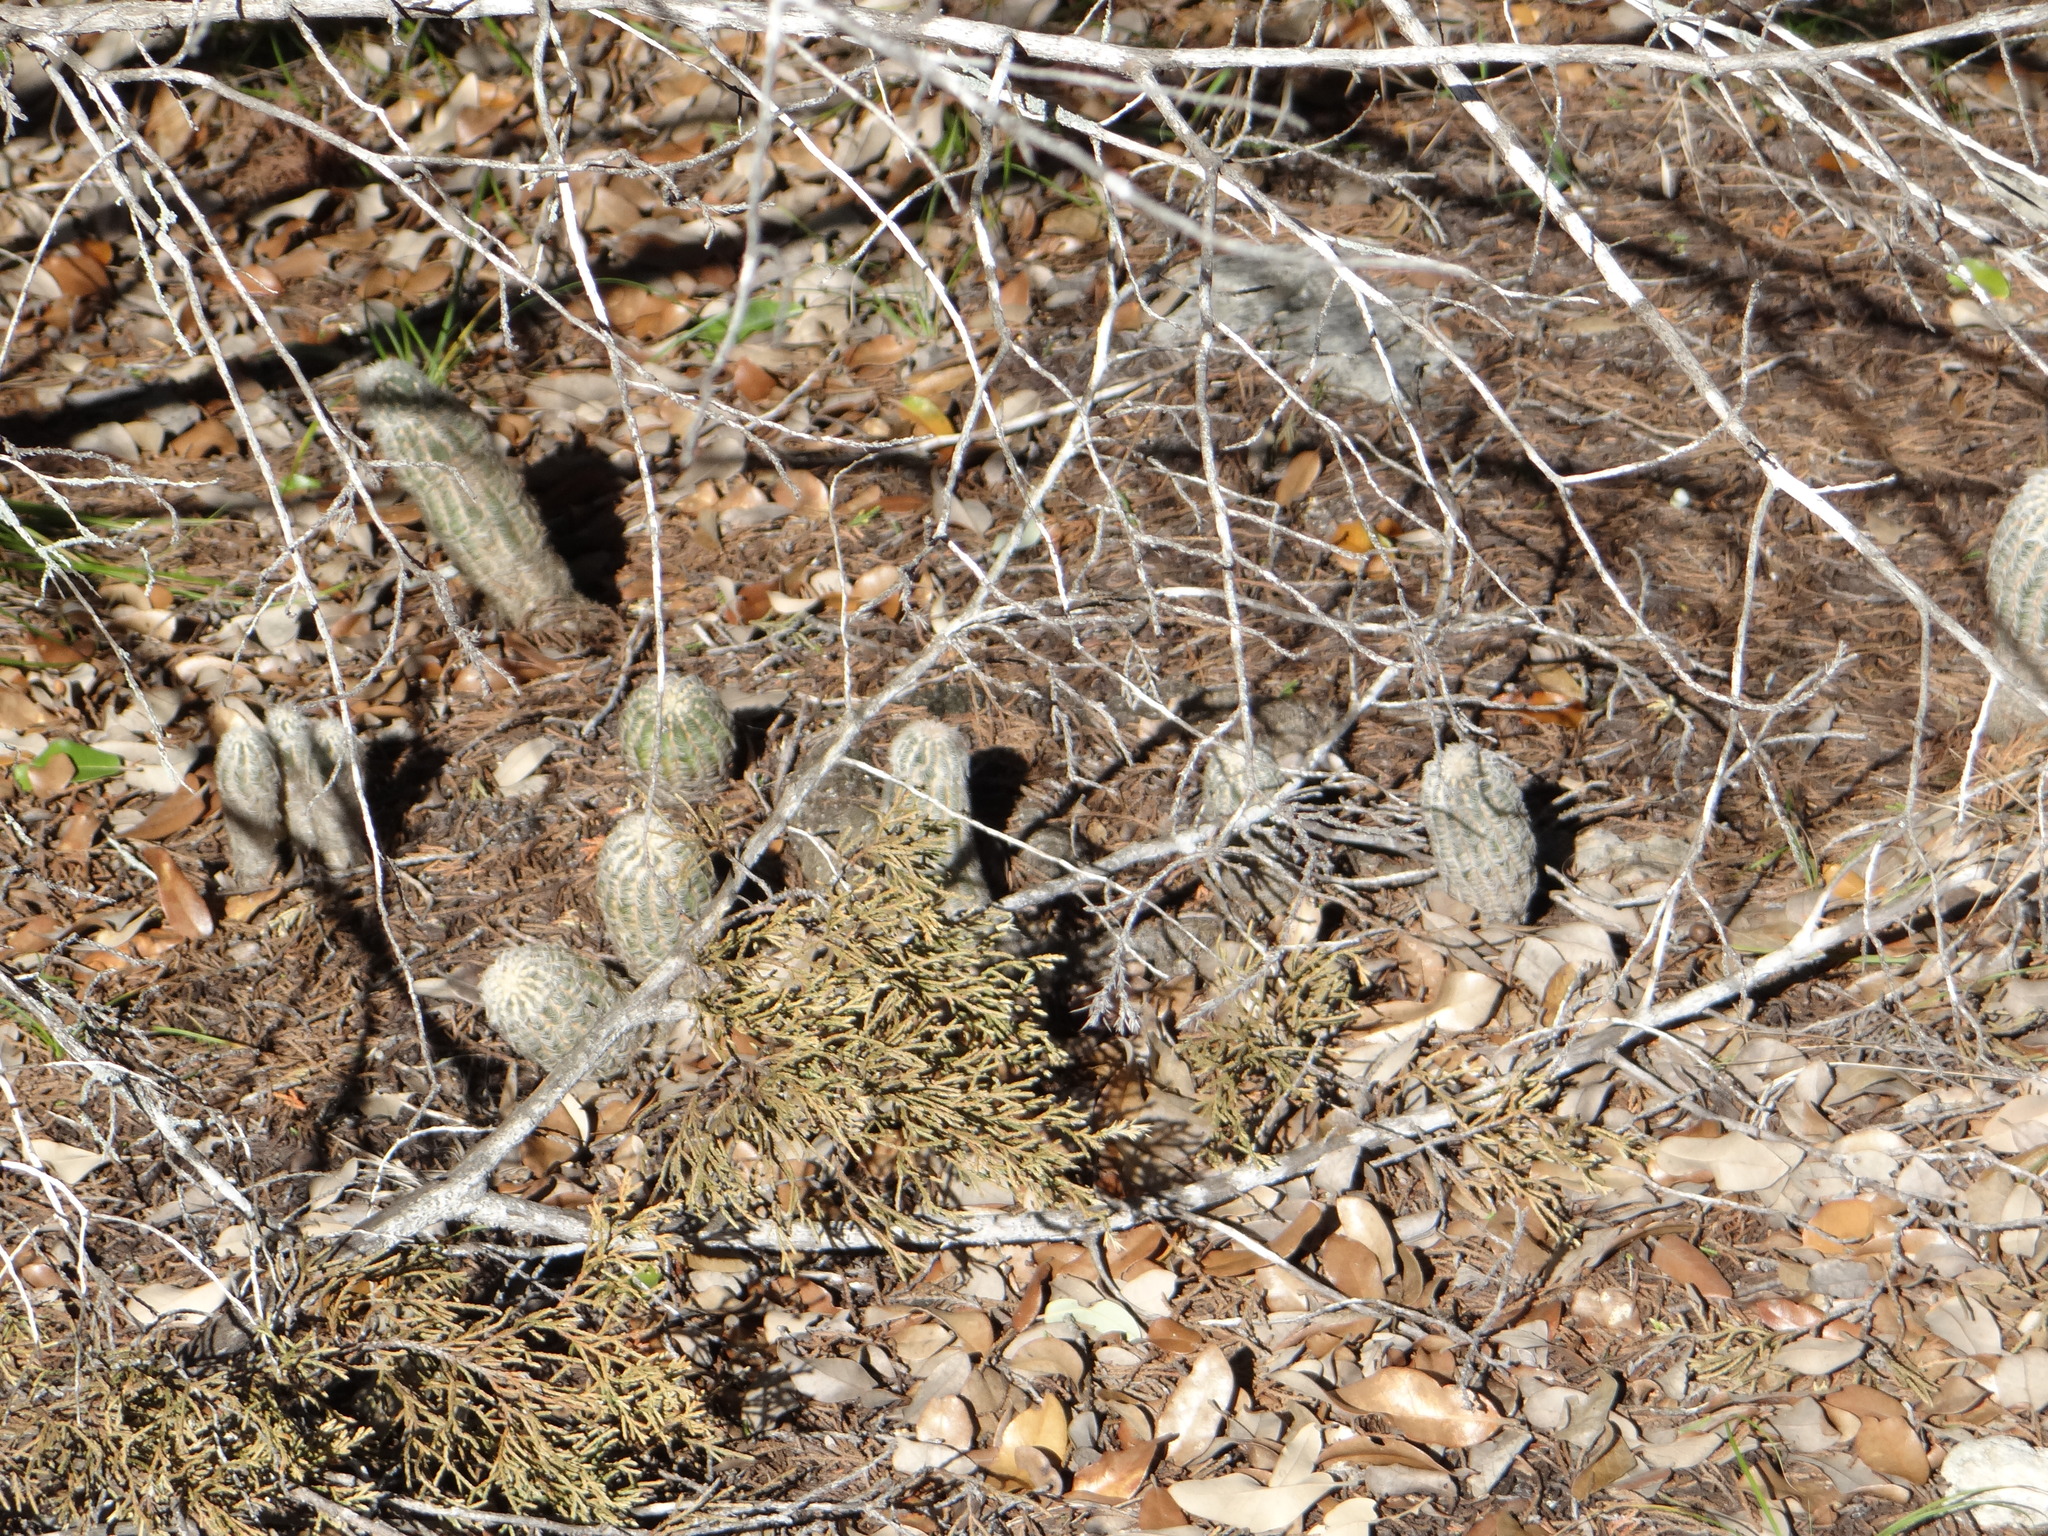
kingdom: Plantae
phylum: Tracheophyta
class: Magnoliopsida
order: Caryophyllales
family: Cactaceae
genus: Echinocereus
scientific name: Echinocereus reichenbachii
